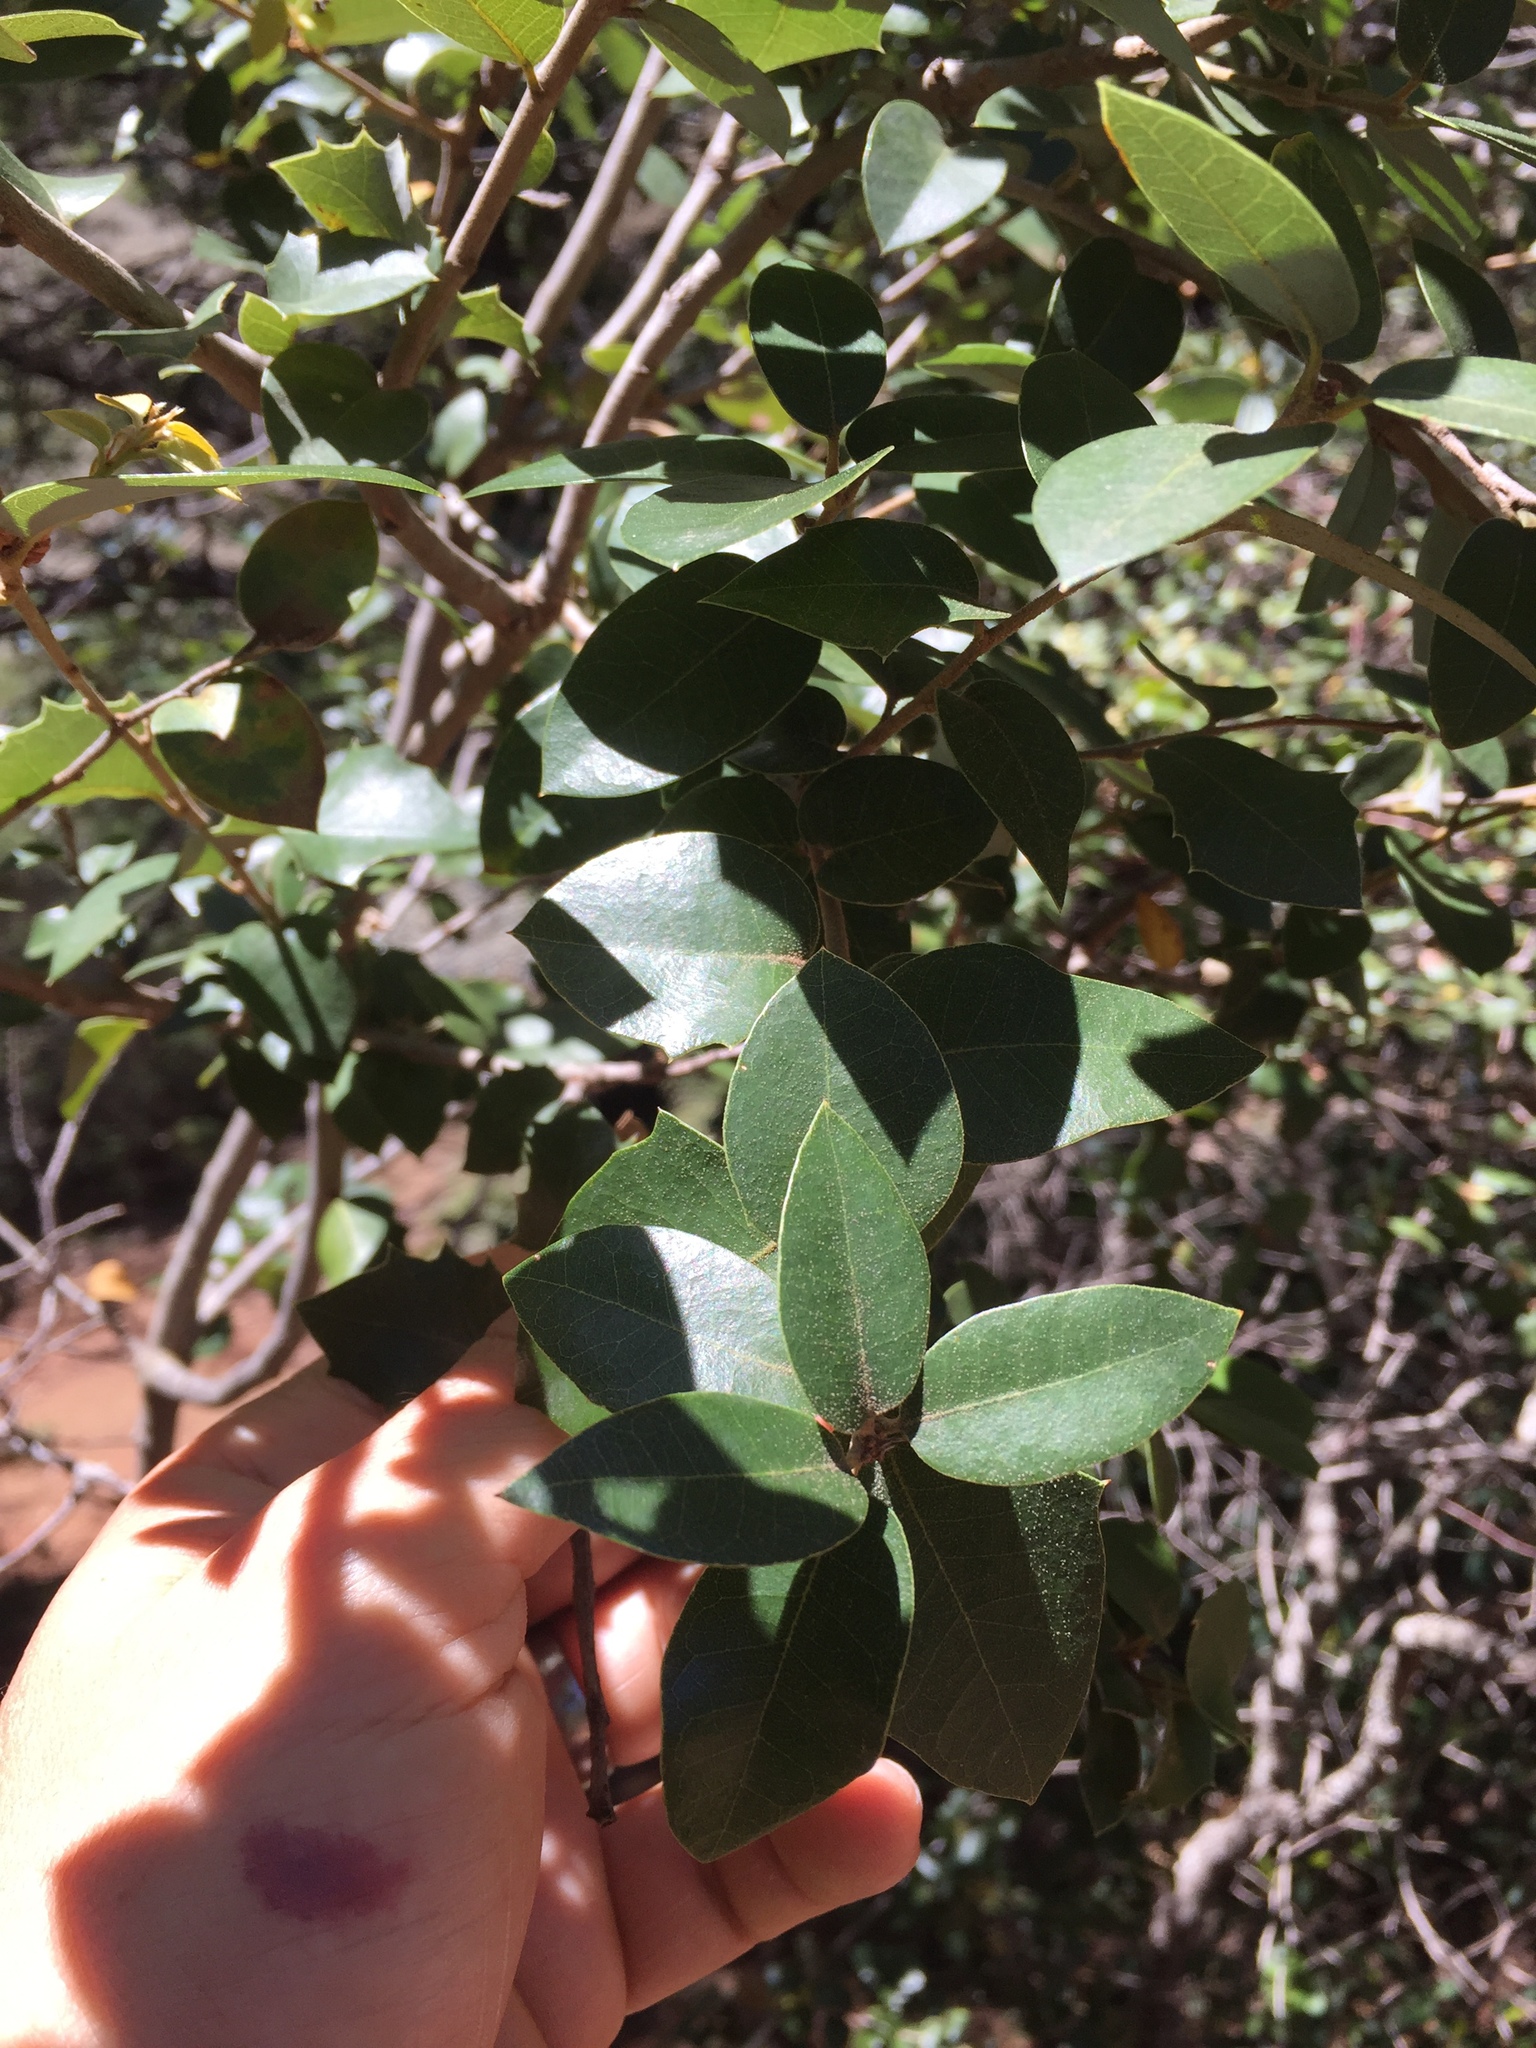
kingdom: Plantae
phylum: Tracheophyta
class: Magnoliopsida
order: Fagales
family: Fagaceae
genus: Quercus
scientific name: Quercus chrysolepis
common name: Canyon live oak
